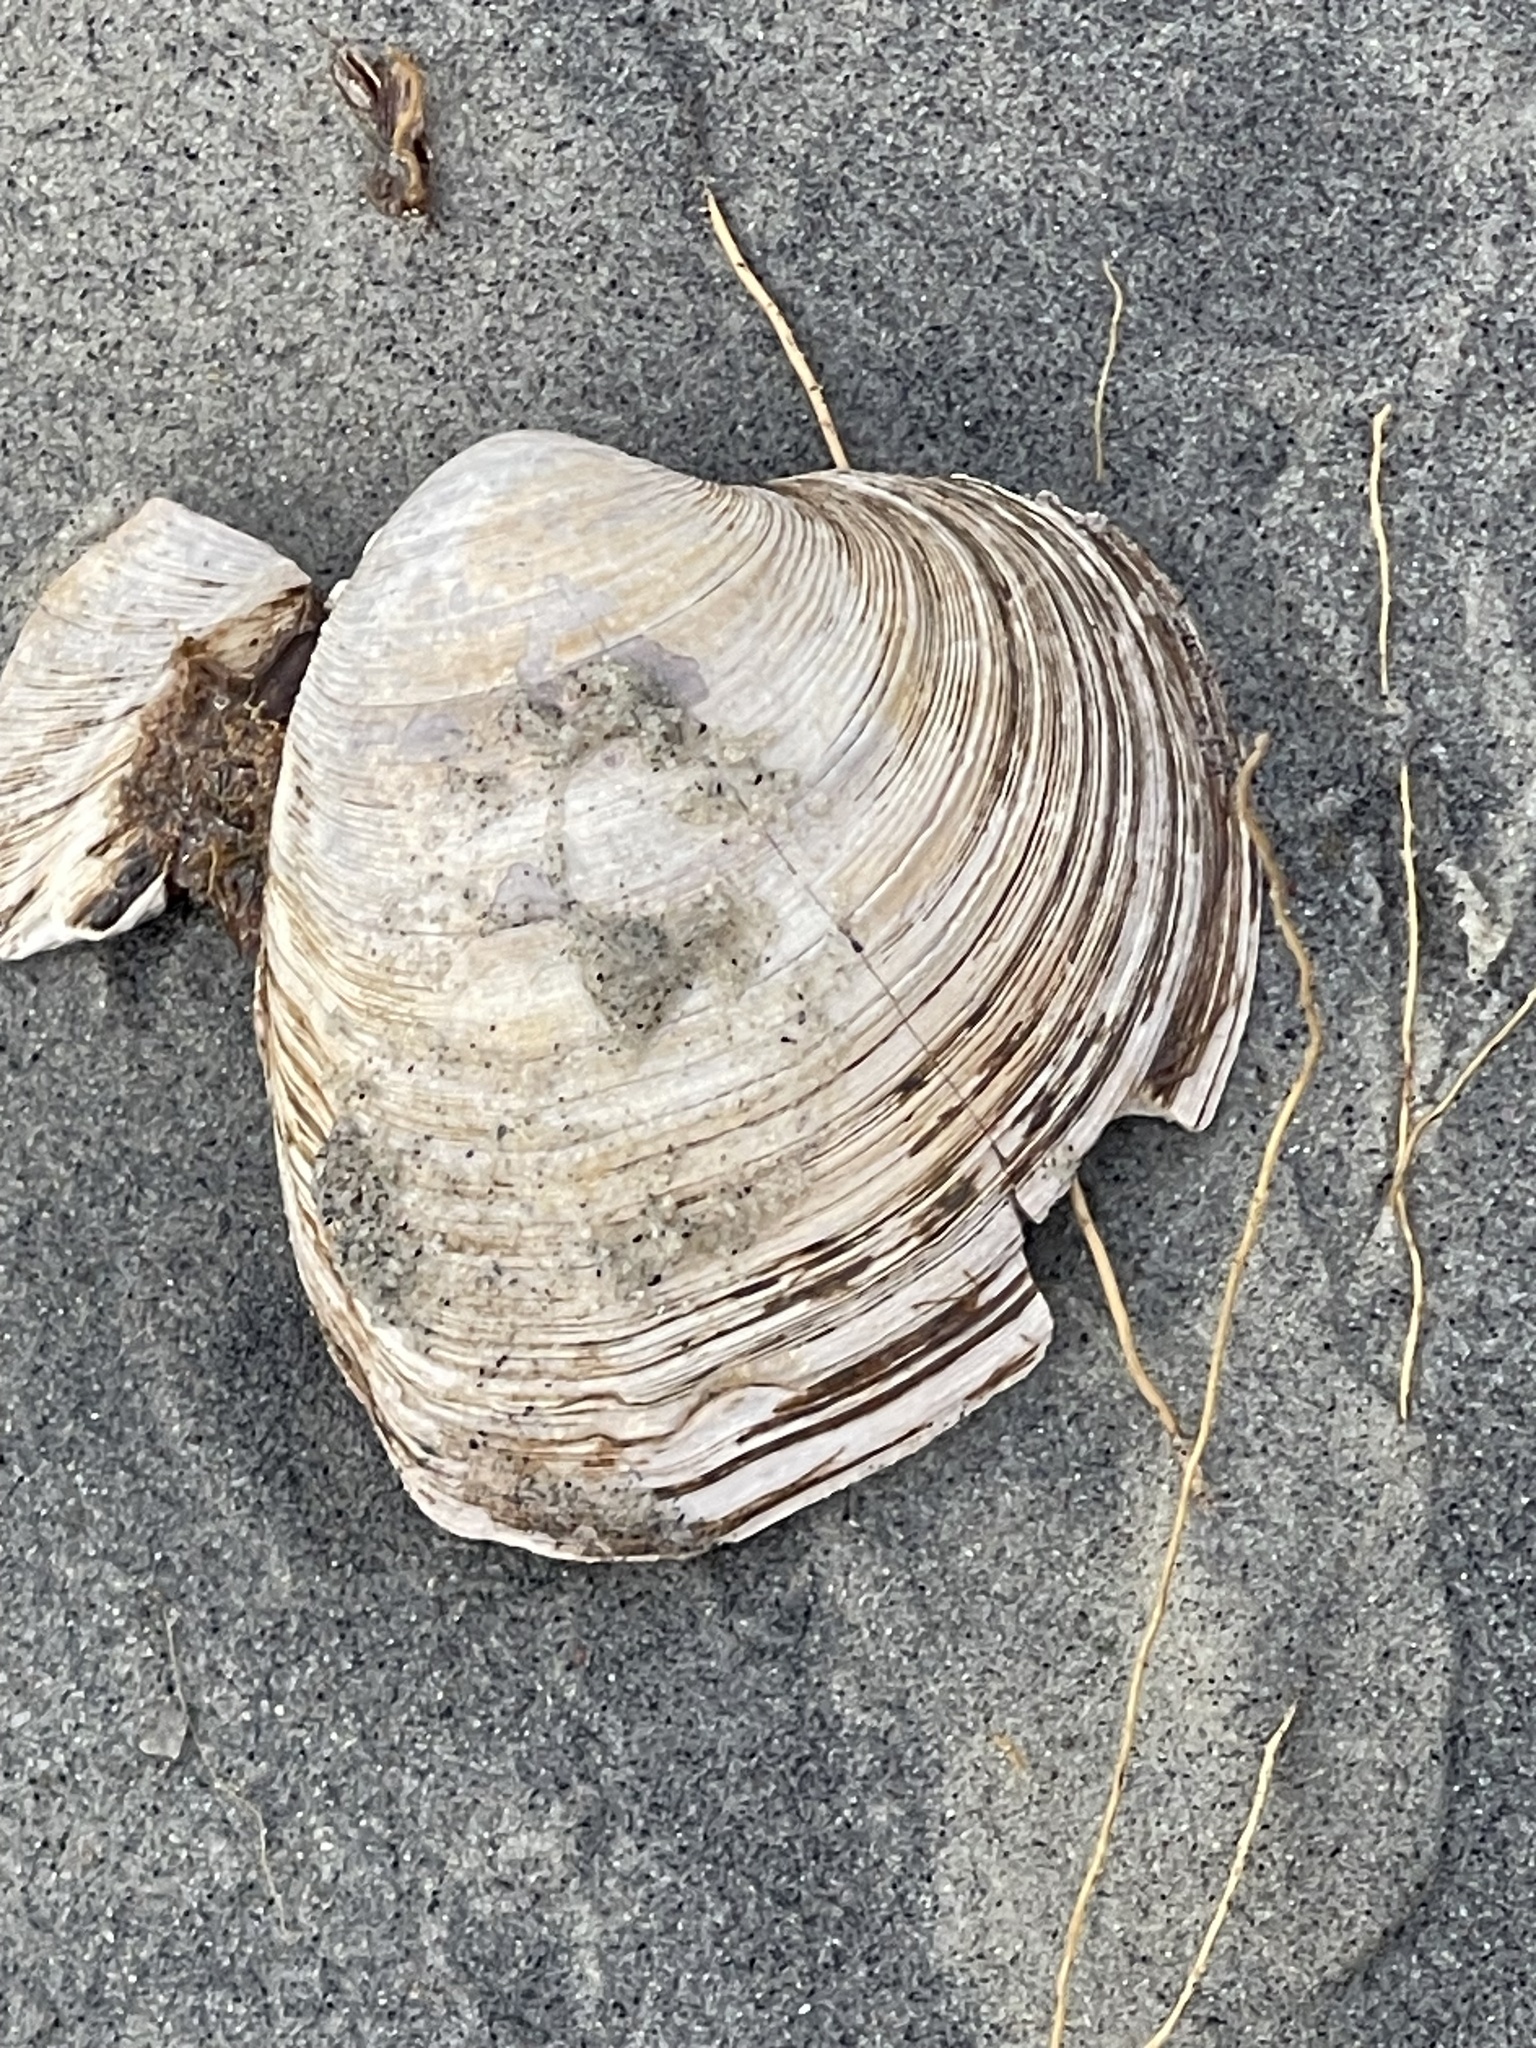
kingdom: Animalia
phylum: Mollusca
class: Bivalvia
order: Venerida
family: Veneridae
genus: Mercenaria
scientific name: Mercenaria mercenaria
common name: American hard-shelled clam
